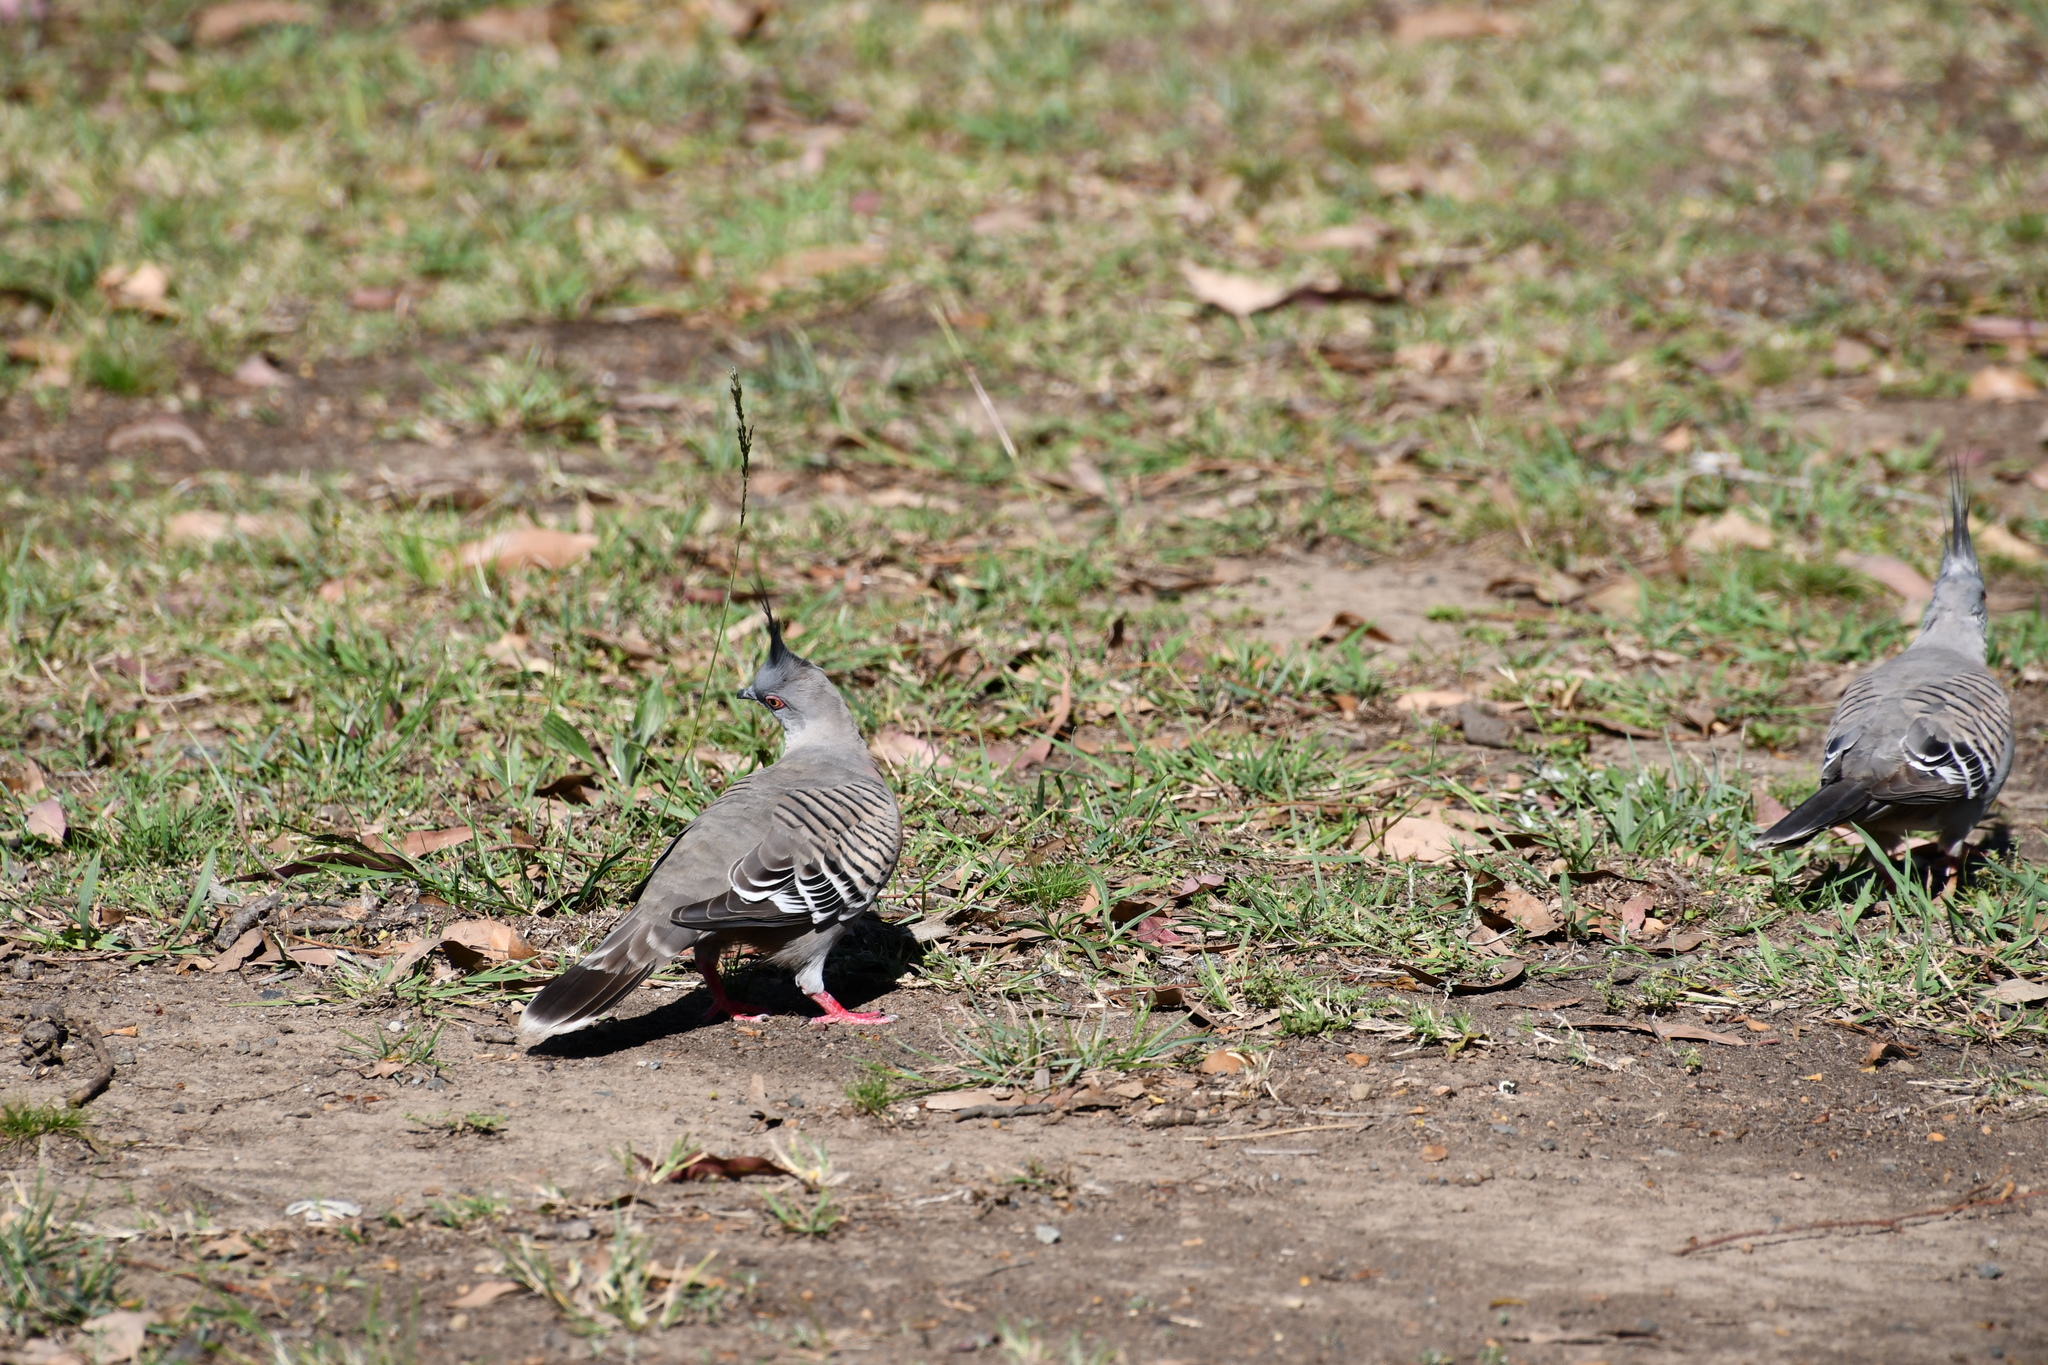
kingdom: Animalia
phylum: Chordata
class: Aves
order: Columbiformes
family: Columbidae
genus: Ocyphaps
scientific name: Ocyphaps lophotes
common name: Crested pigeon
